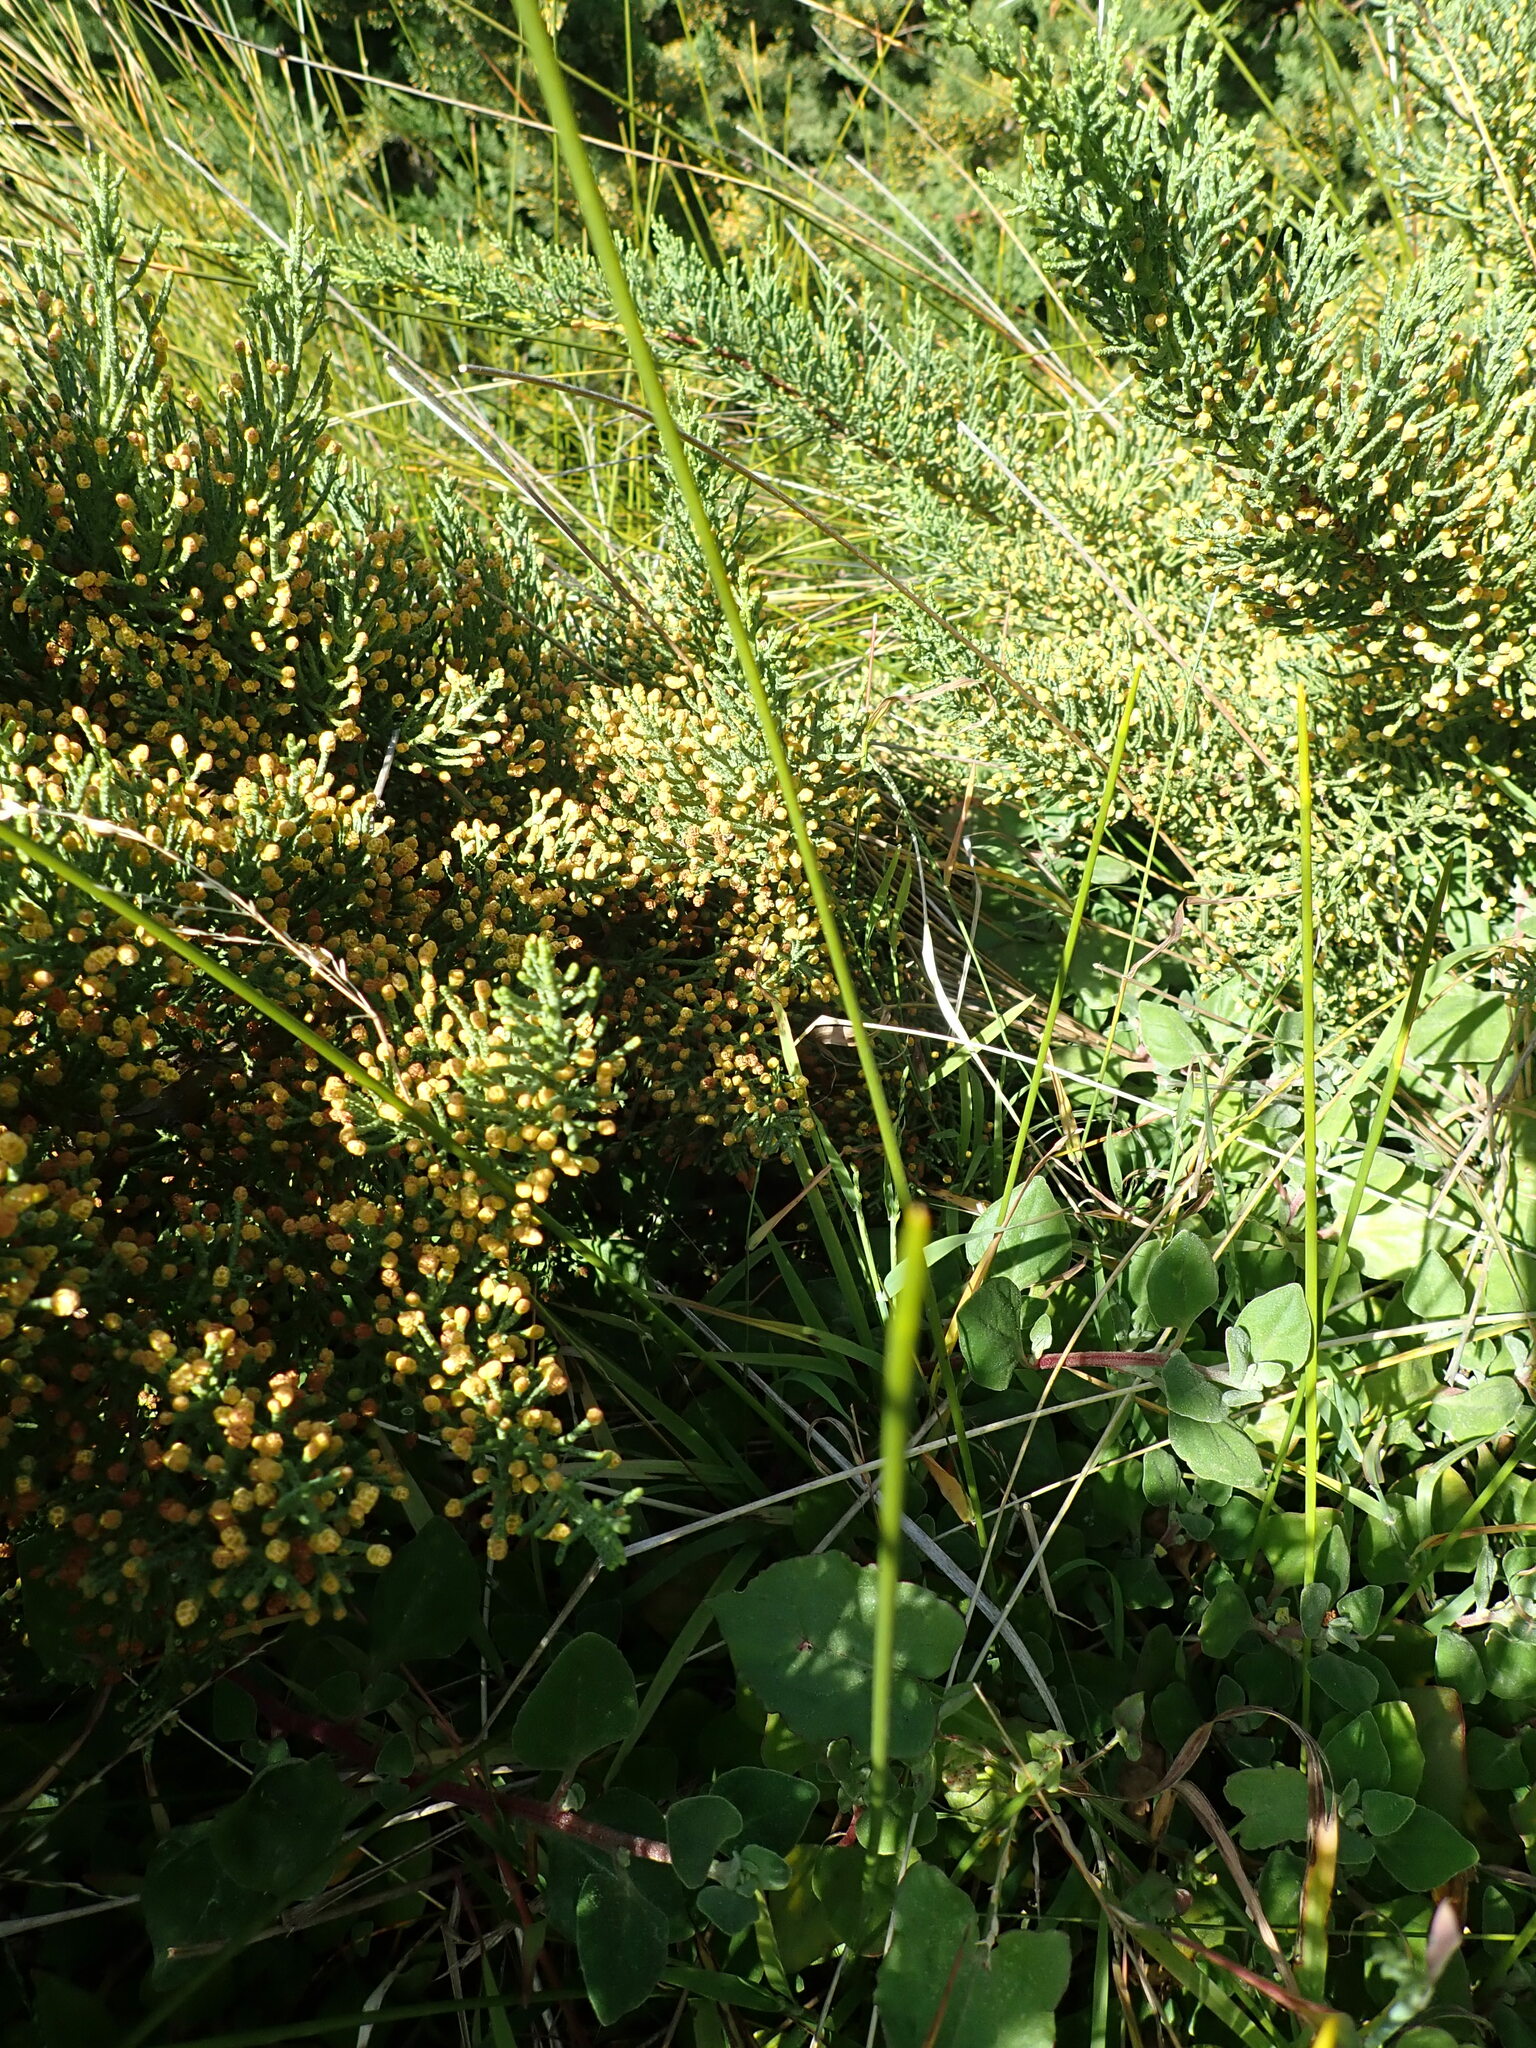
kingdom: Plantae
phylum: Tracheophyta
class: Pinopsida
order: Pinales
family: Cupressaceae
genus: Cupressus
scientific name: Cupressus macrocarpa
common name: Monterey cypress
